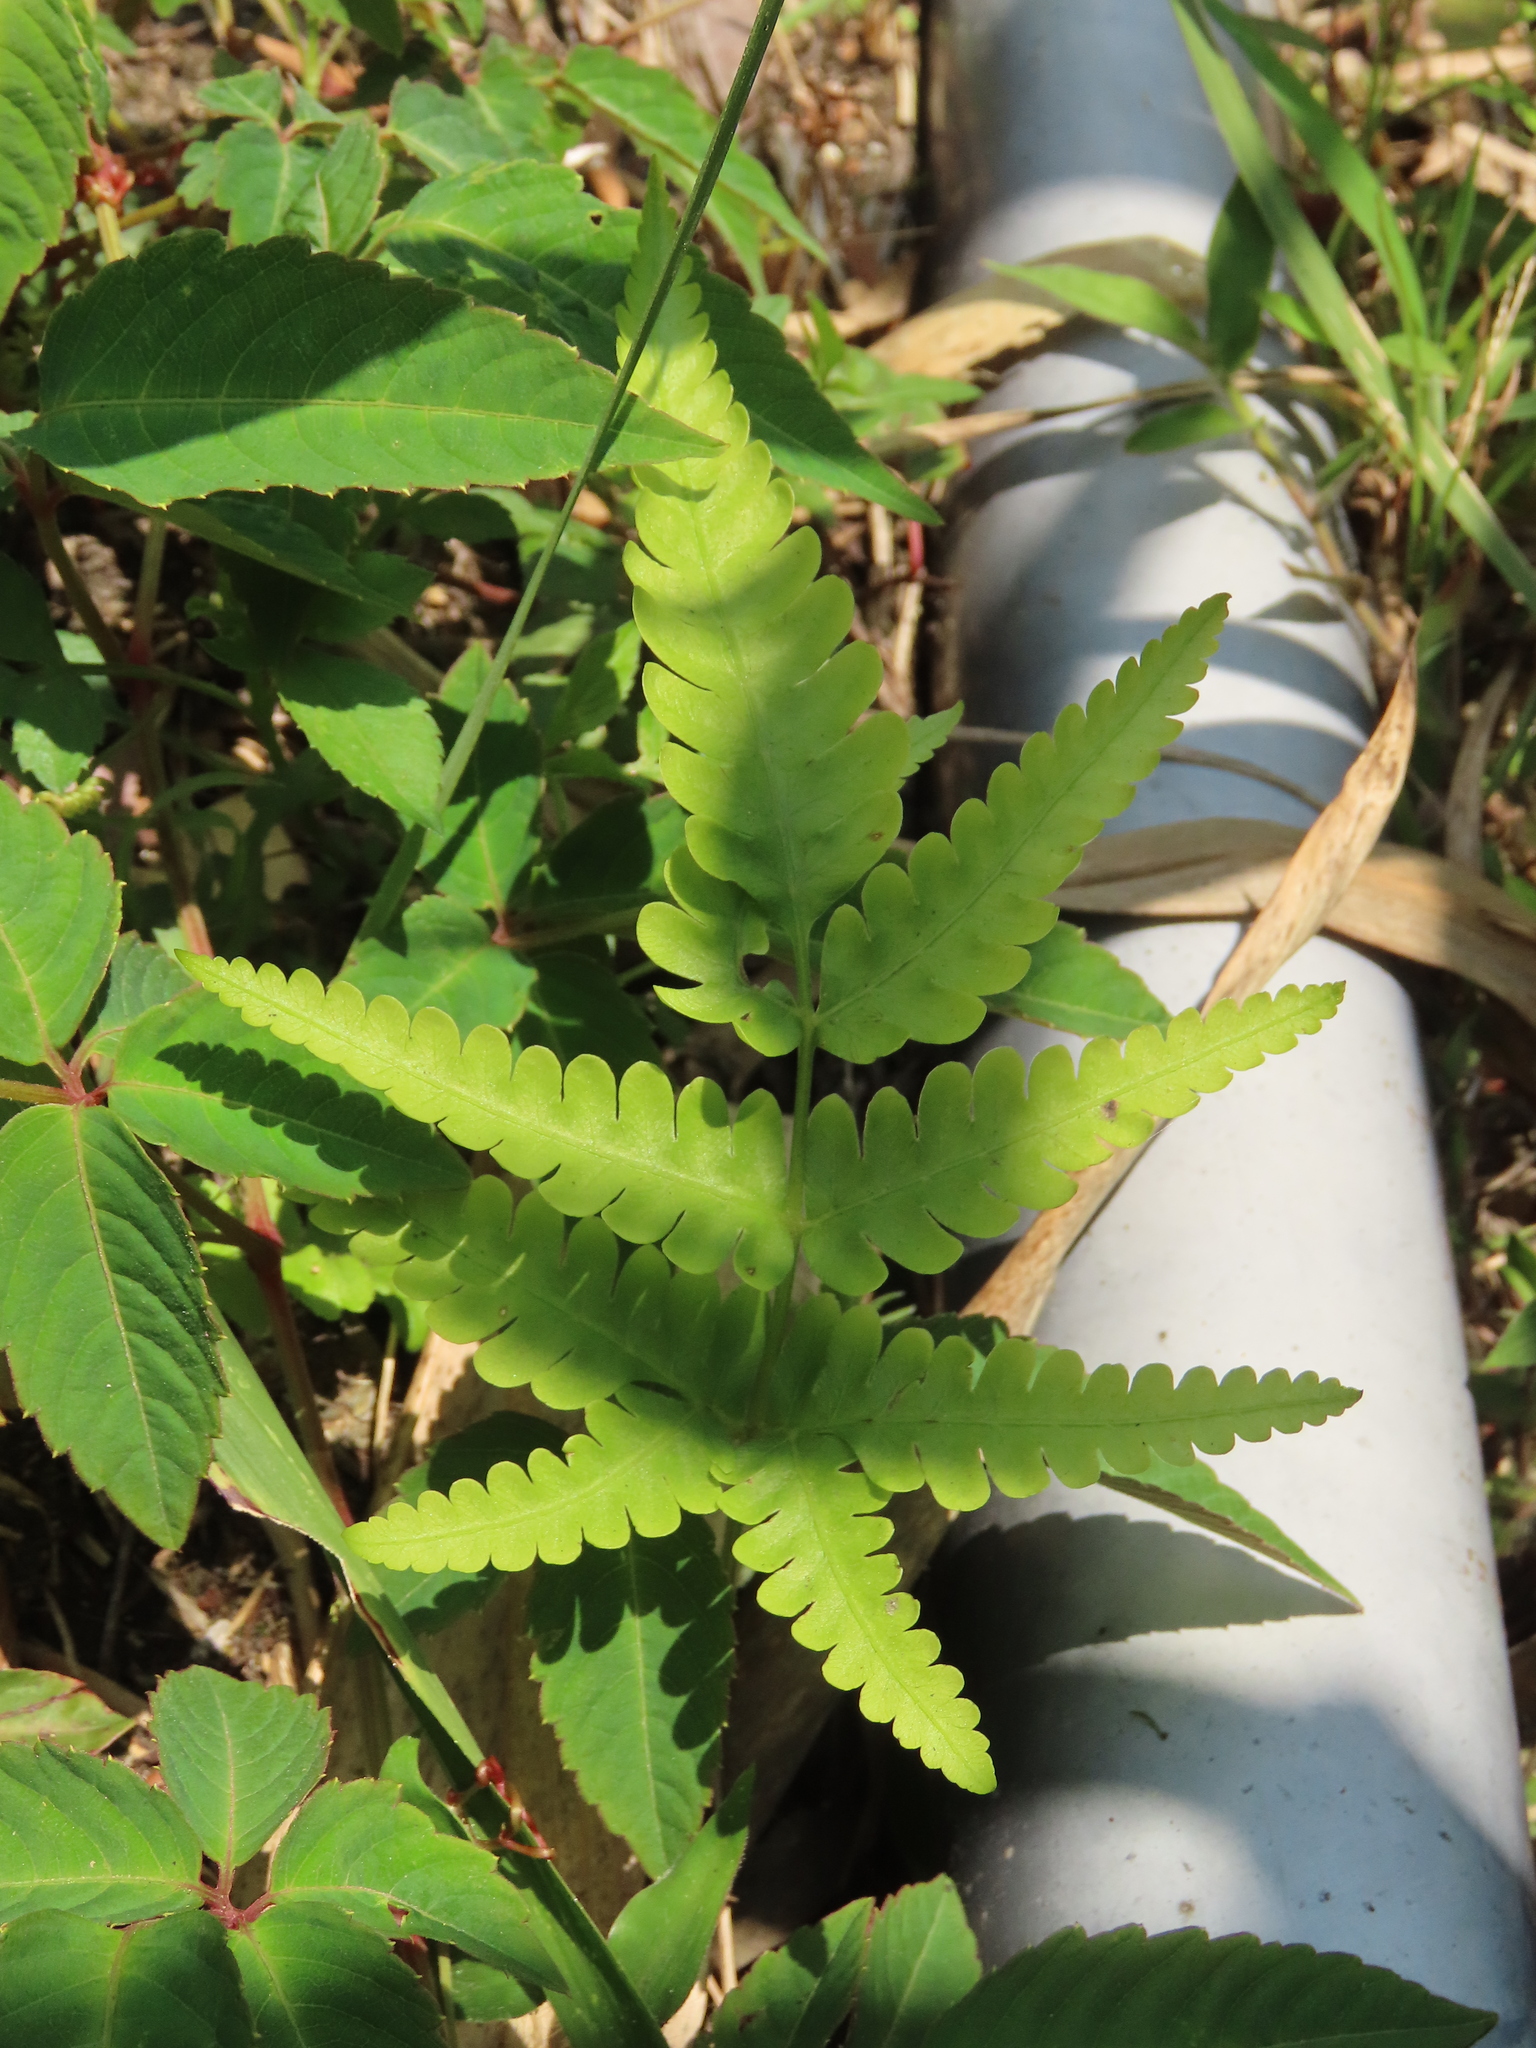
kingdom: Plantae
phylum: Tracheophyta
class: Polypodiopsida
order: Polypodiales
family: Pteridaceae
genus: Pteris
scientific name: Pteris biaurita
